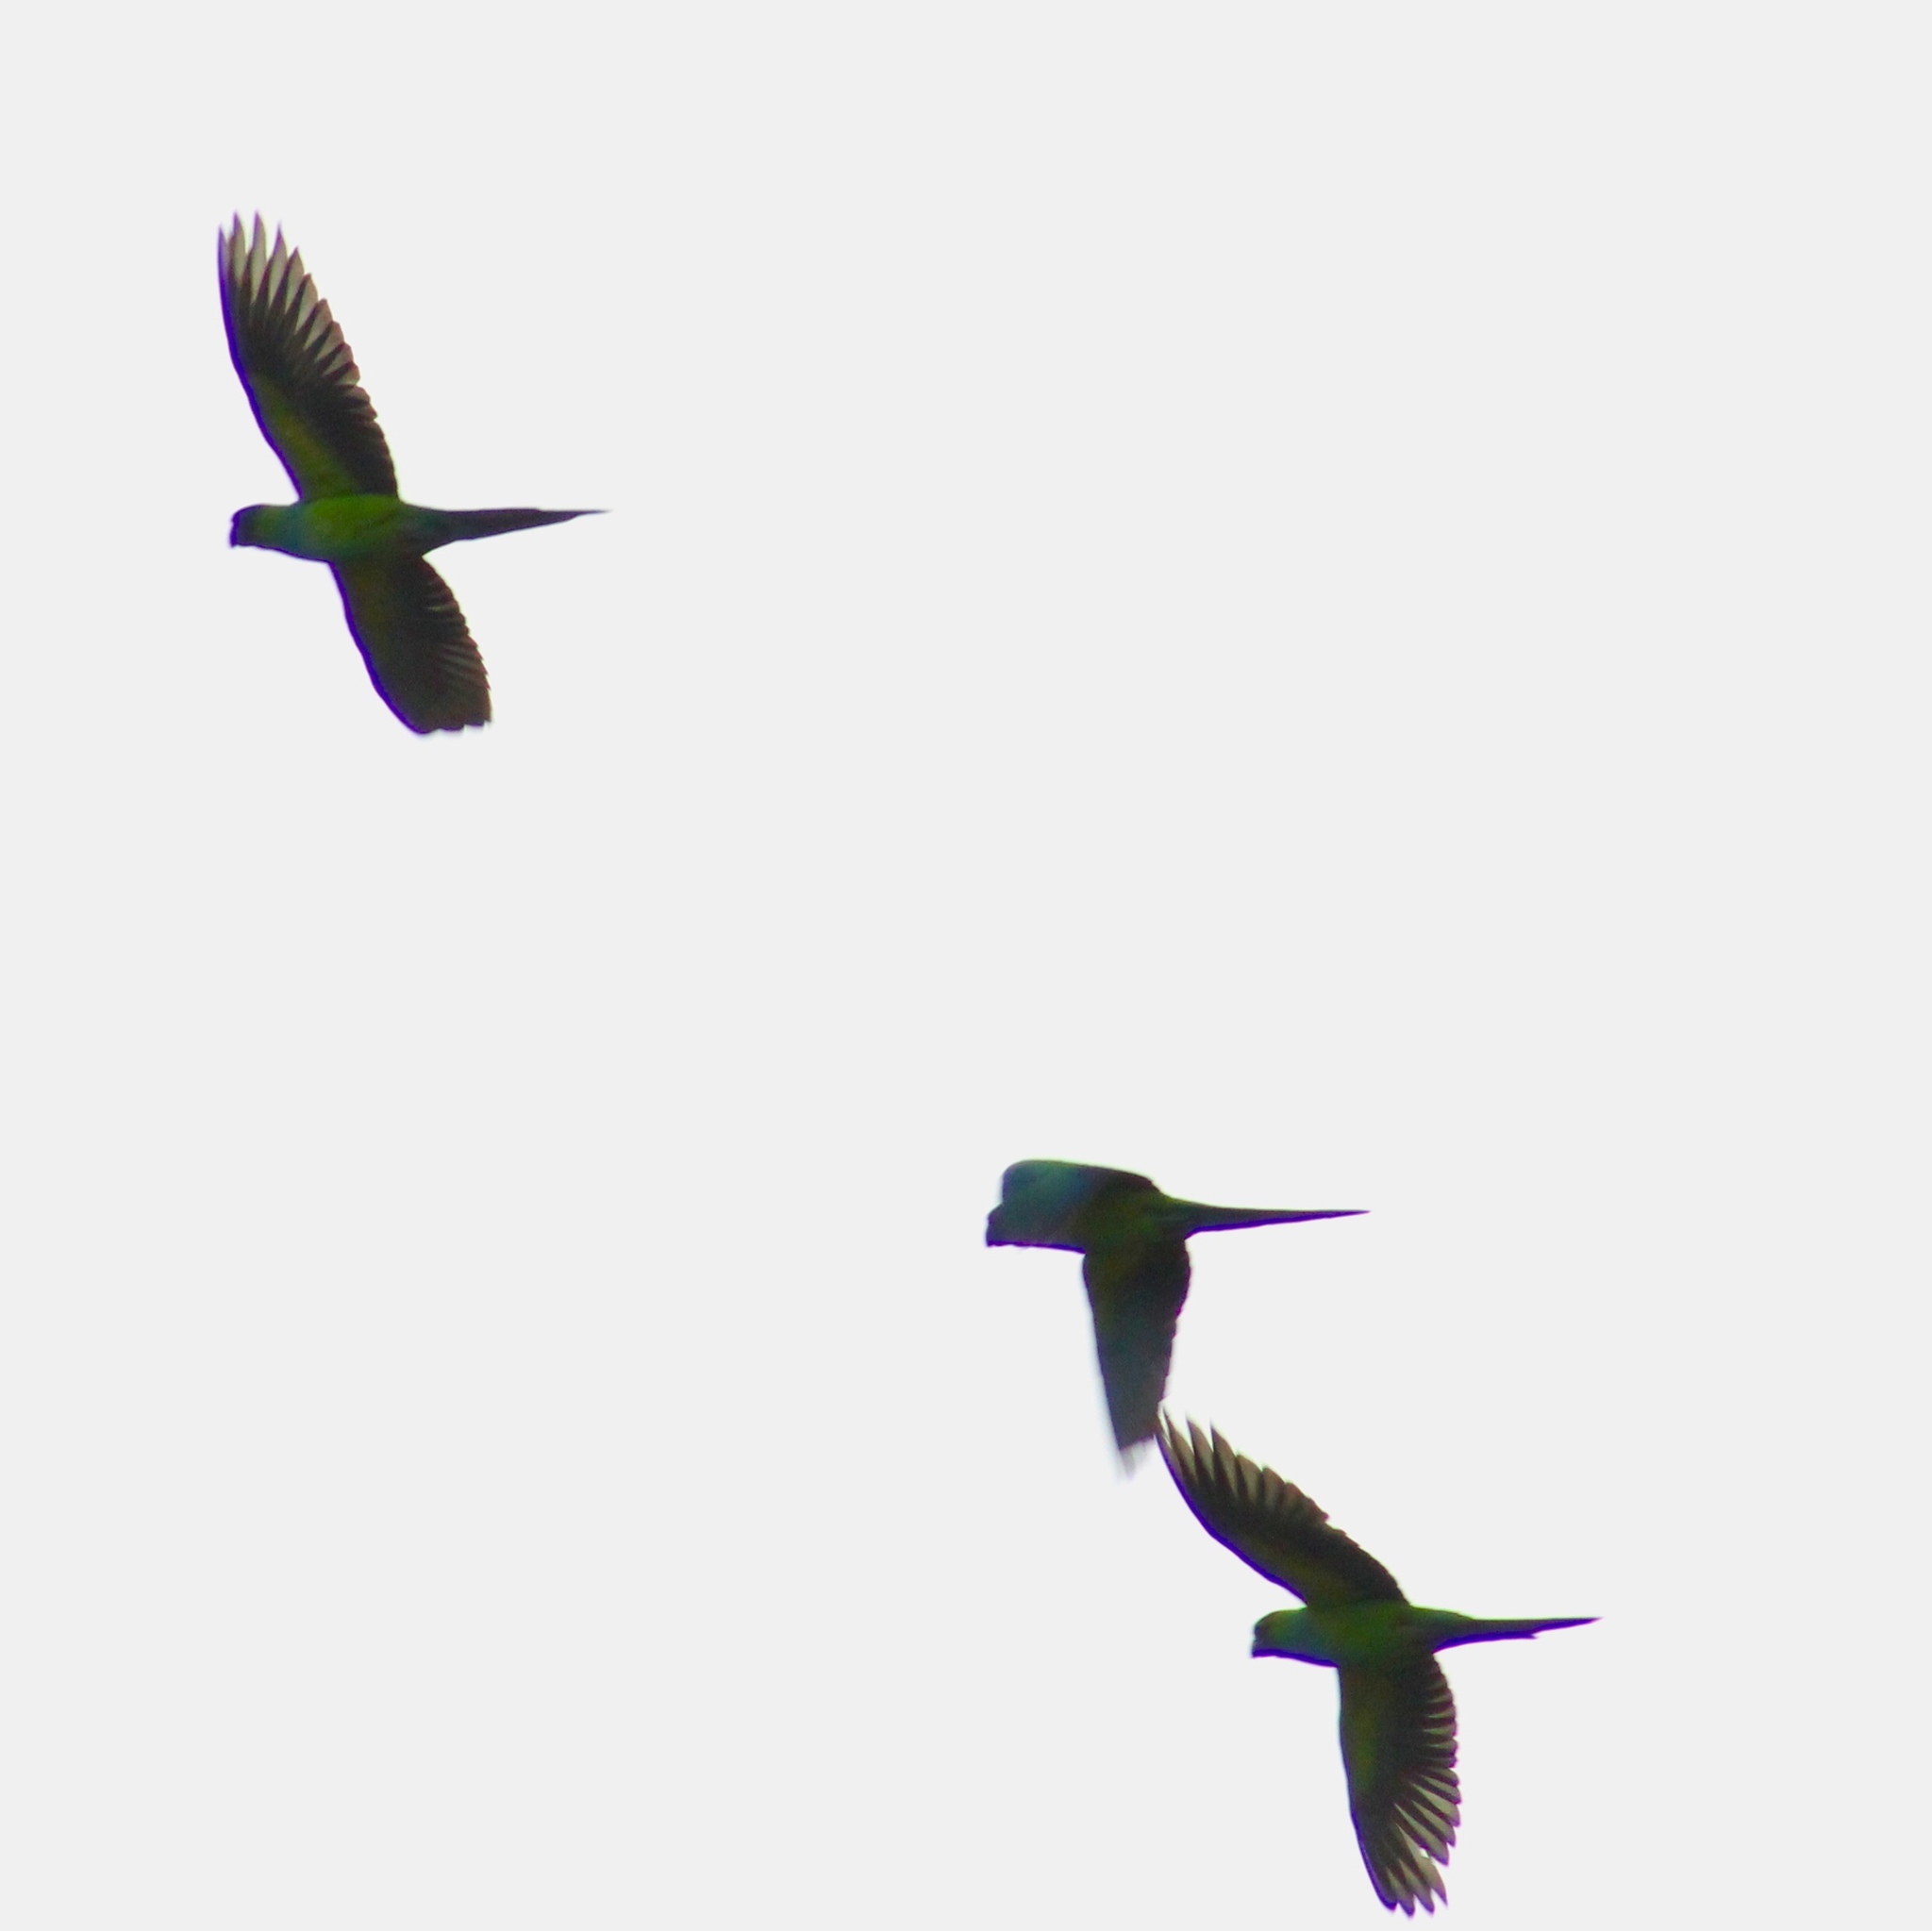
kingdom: Animalia
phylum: Chordata
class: Aves
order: Psittaciformes
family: Psittacidae
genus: Nandayus
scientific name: Nandayus nenday
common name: Nanday parakeet
